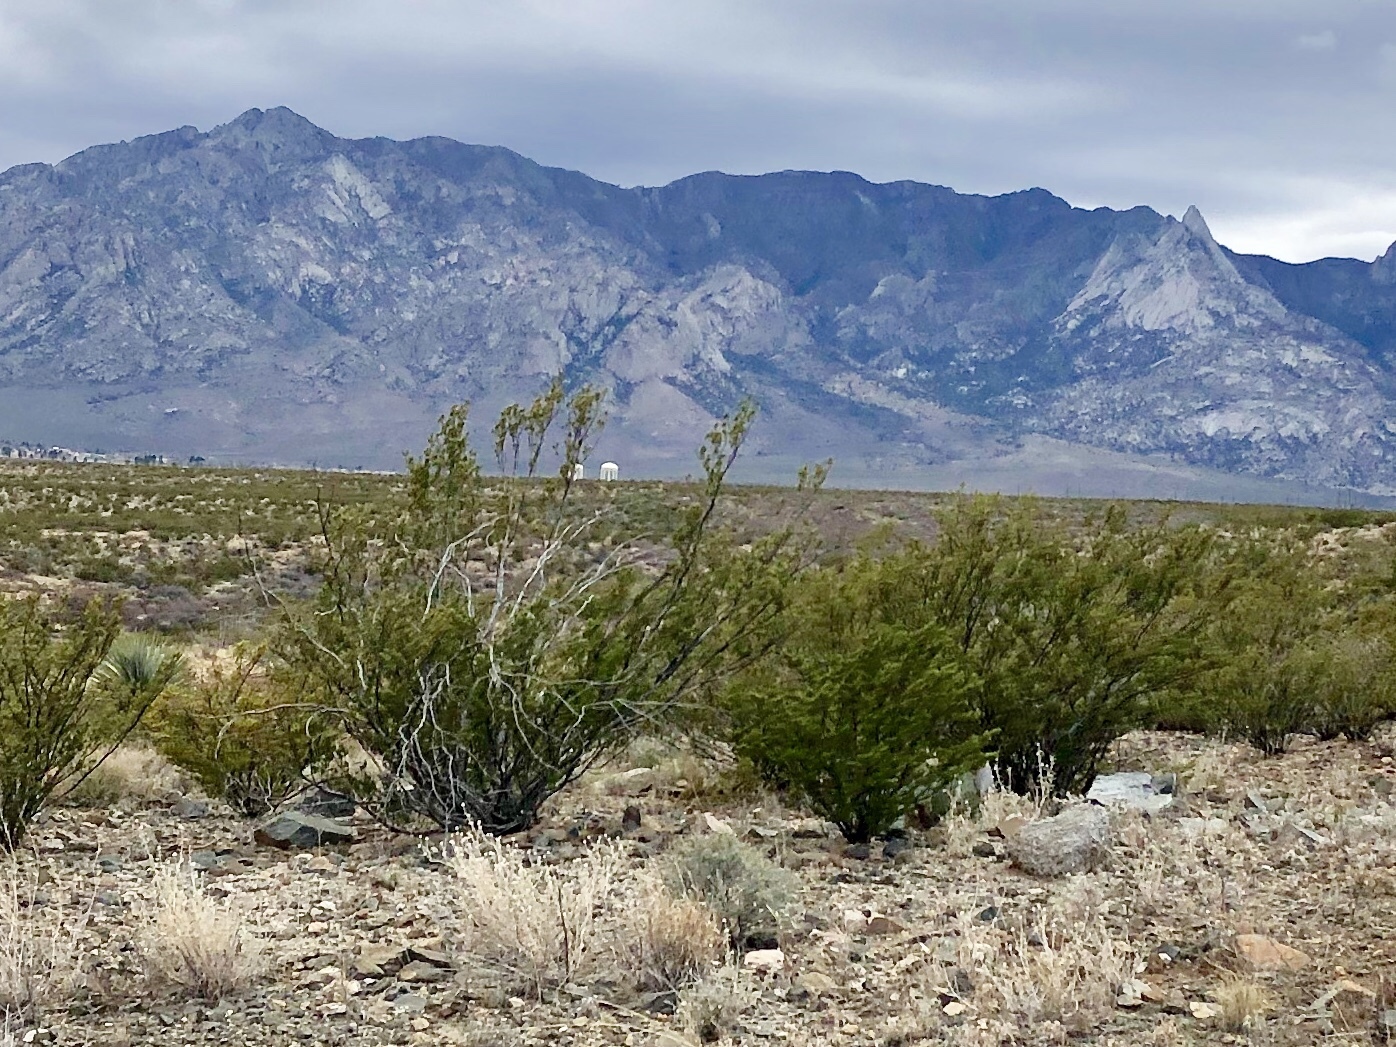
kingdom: Plantae
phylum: Tracheophyta
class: Magnoliopsida
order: Zygophyllales
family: Zygophyllaceae
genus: Larrea
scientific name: Larrea tridentata
